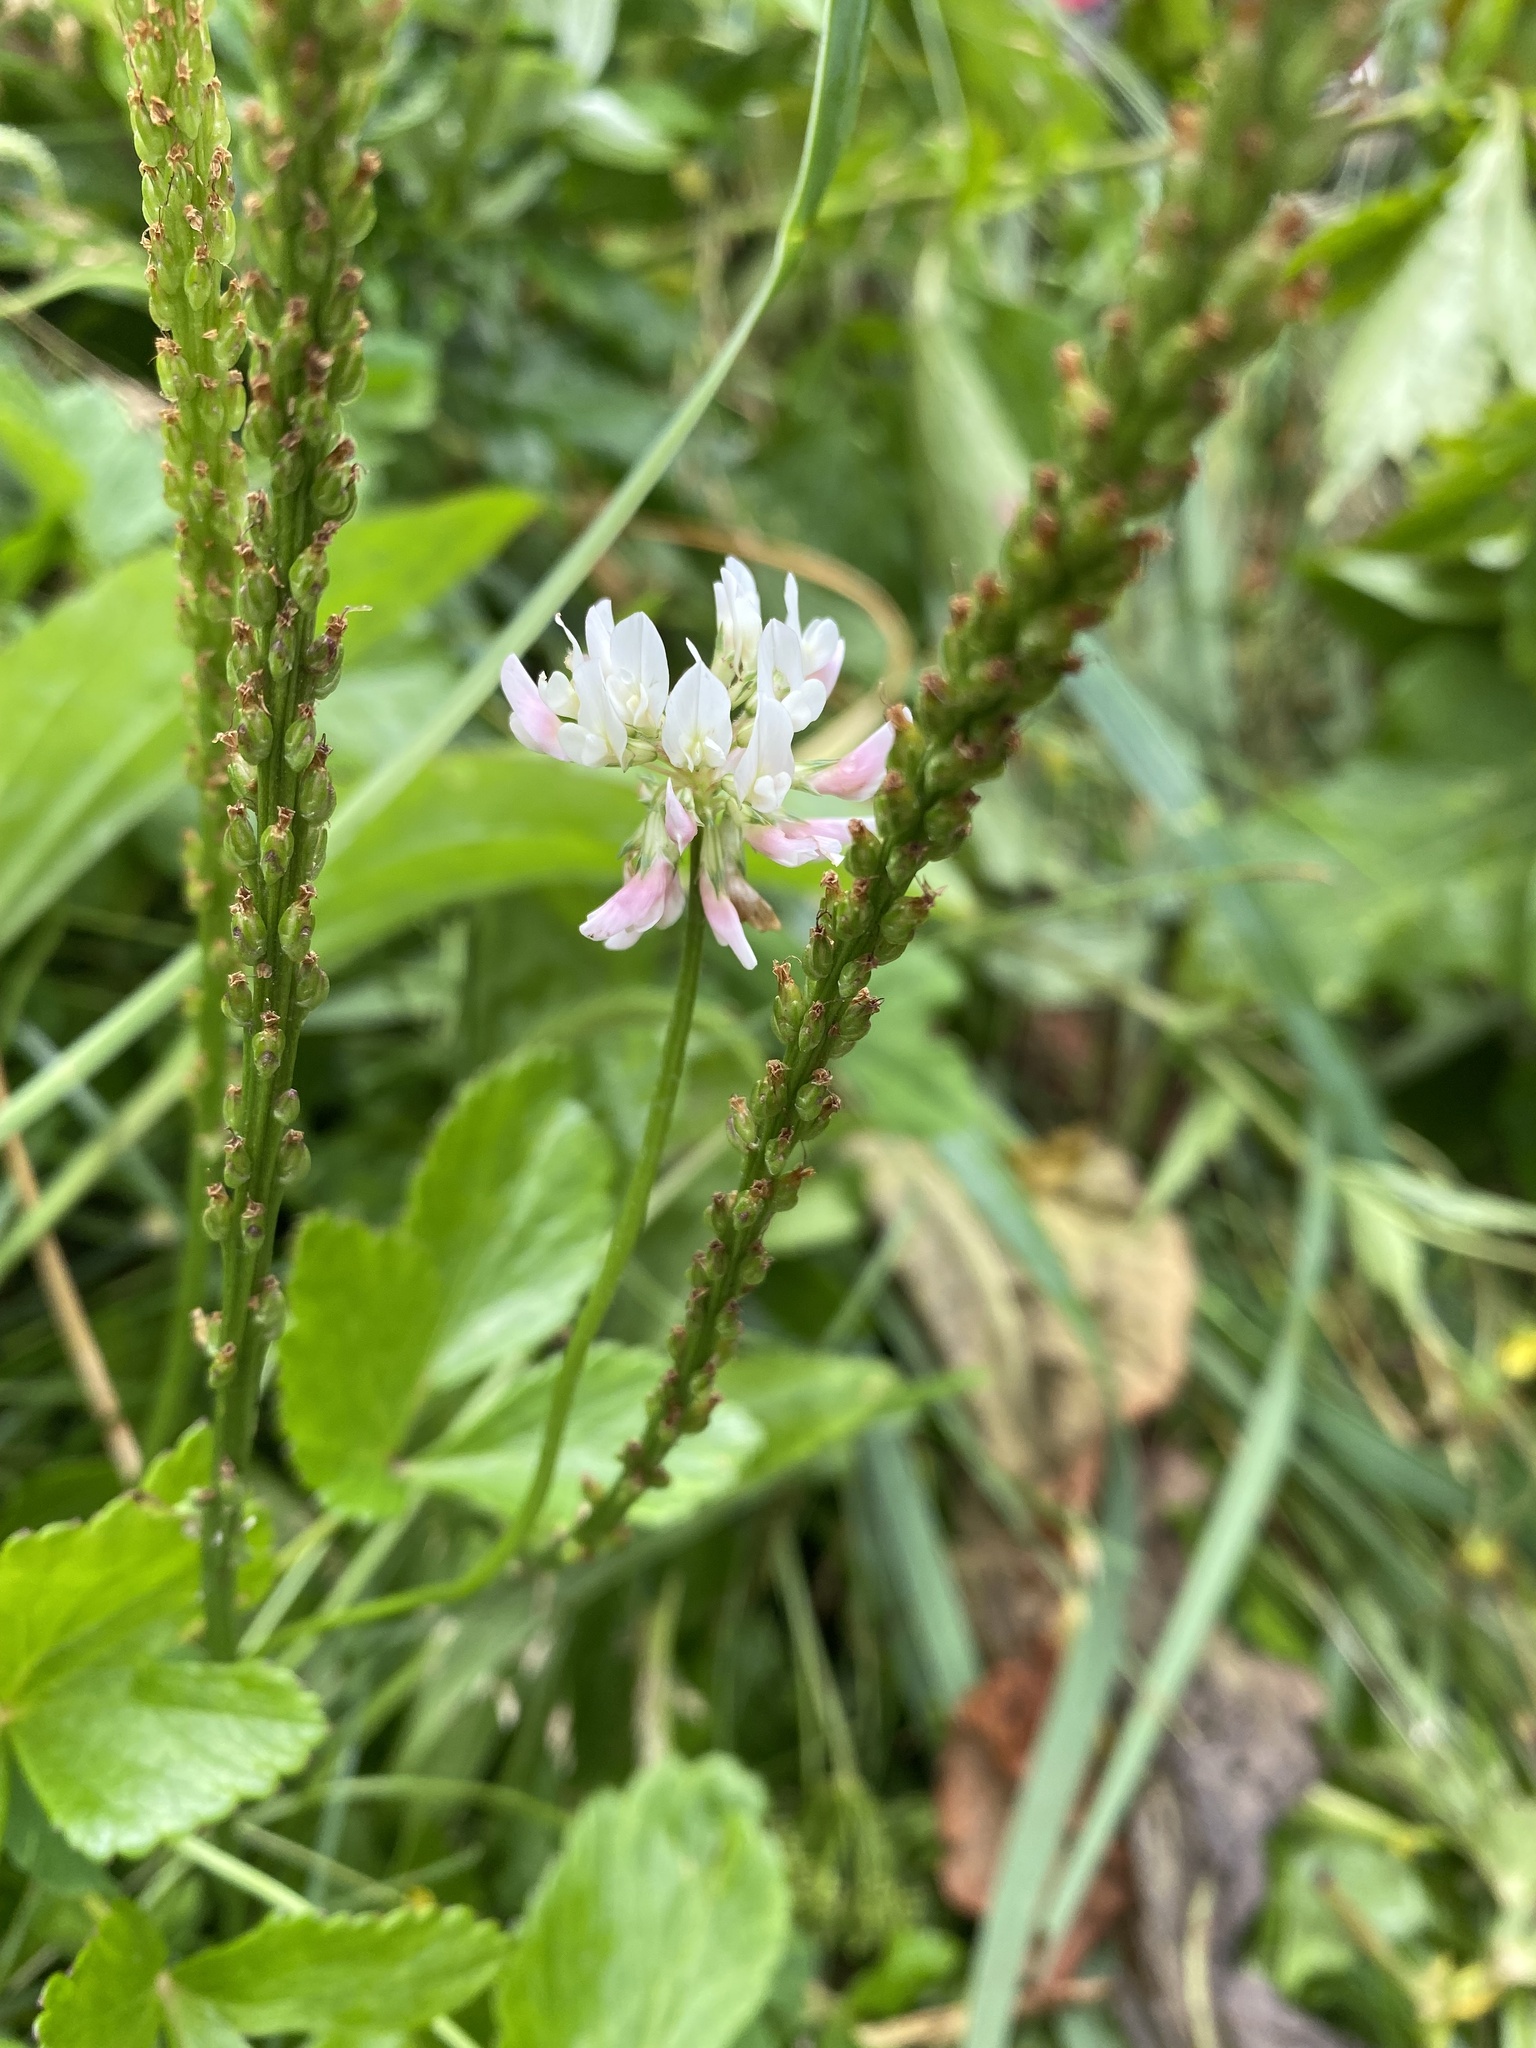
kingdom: Plantae
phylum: Tracheophyta
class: Magnoliopsida
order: Fabales
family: Fabaceae
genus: Trifolium
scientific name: Trifolium repens
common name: White clover
